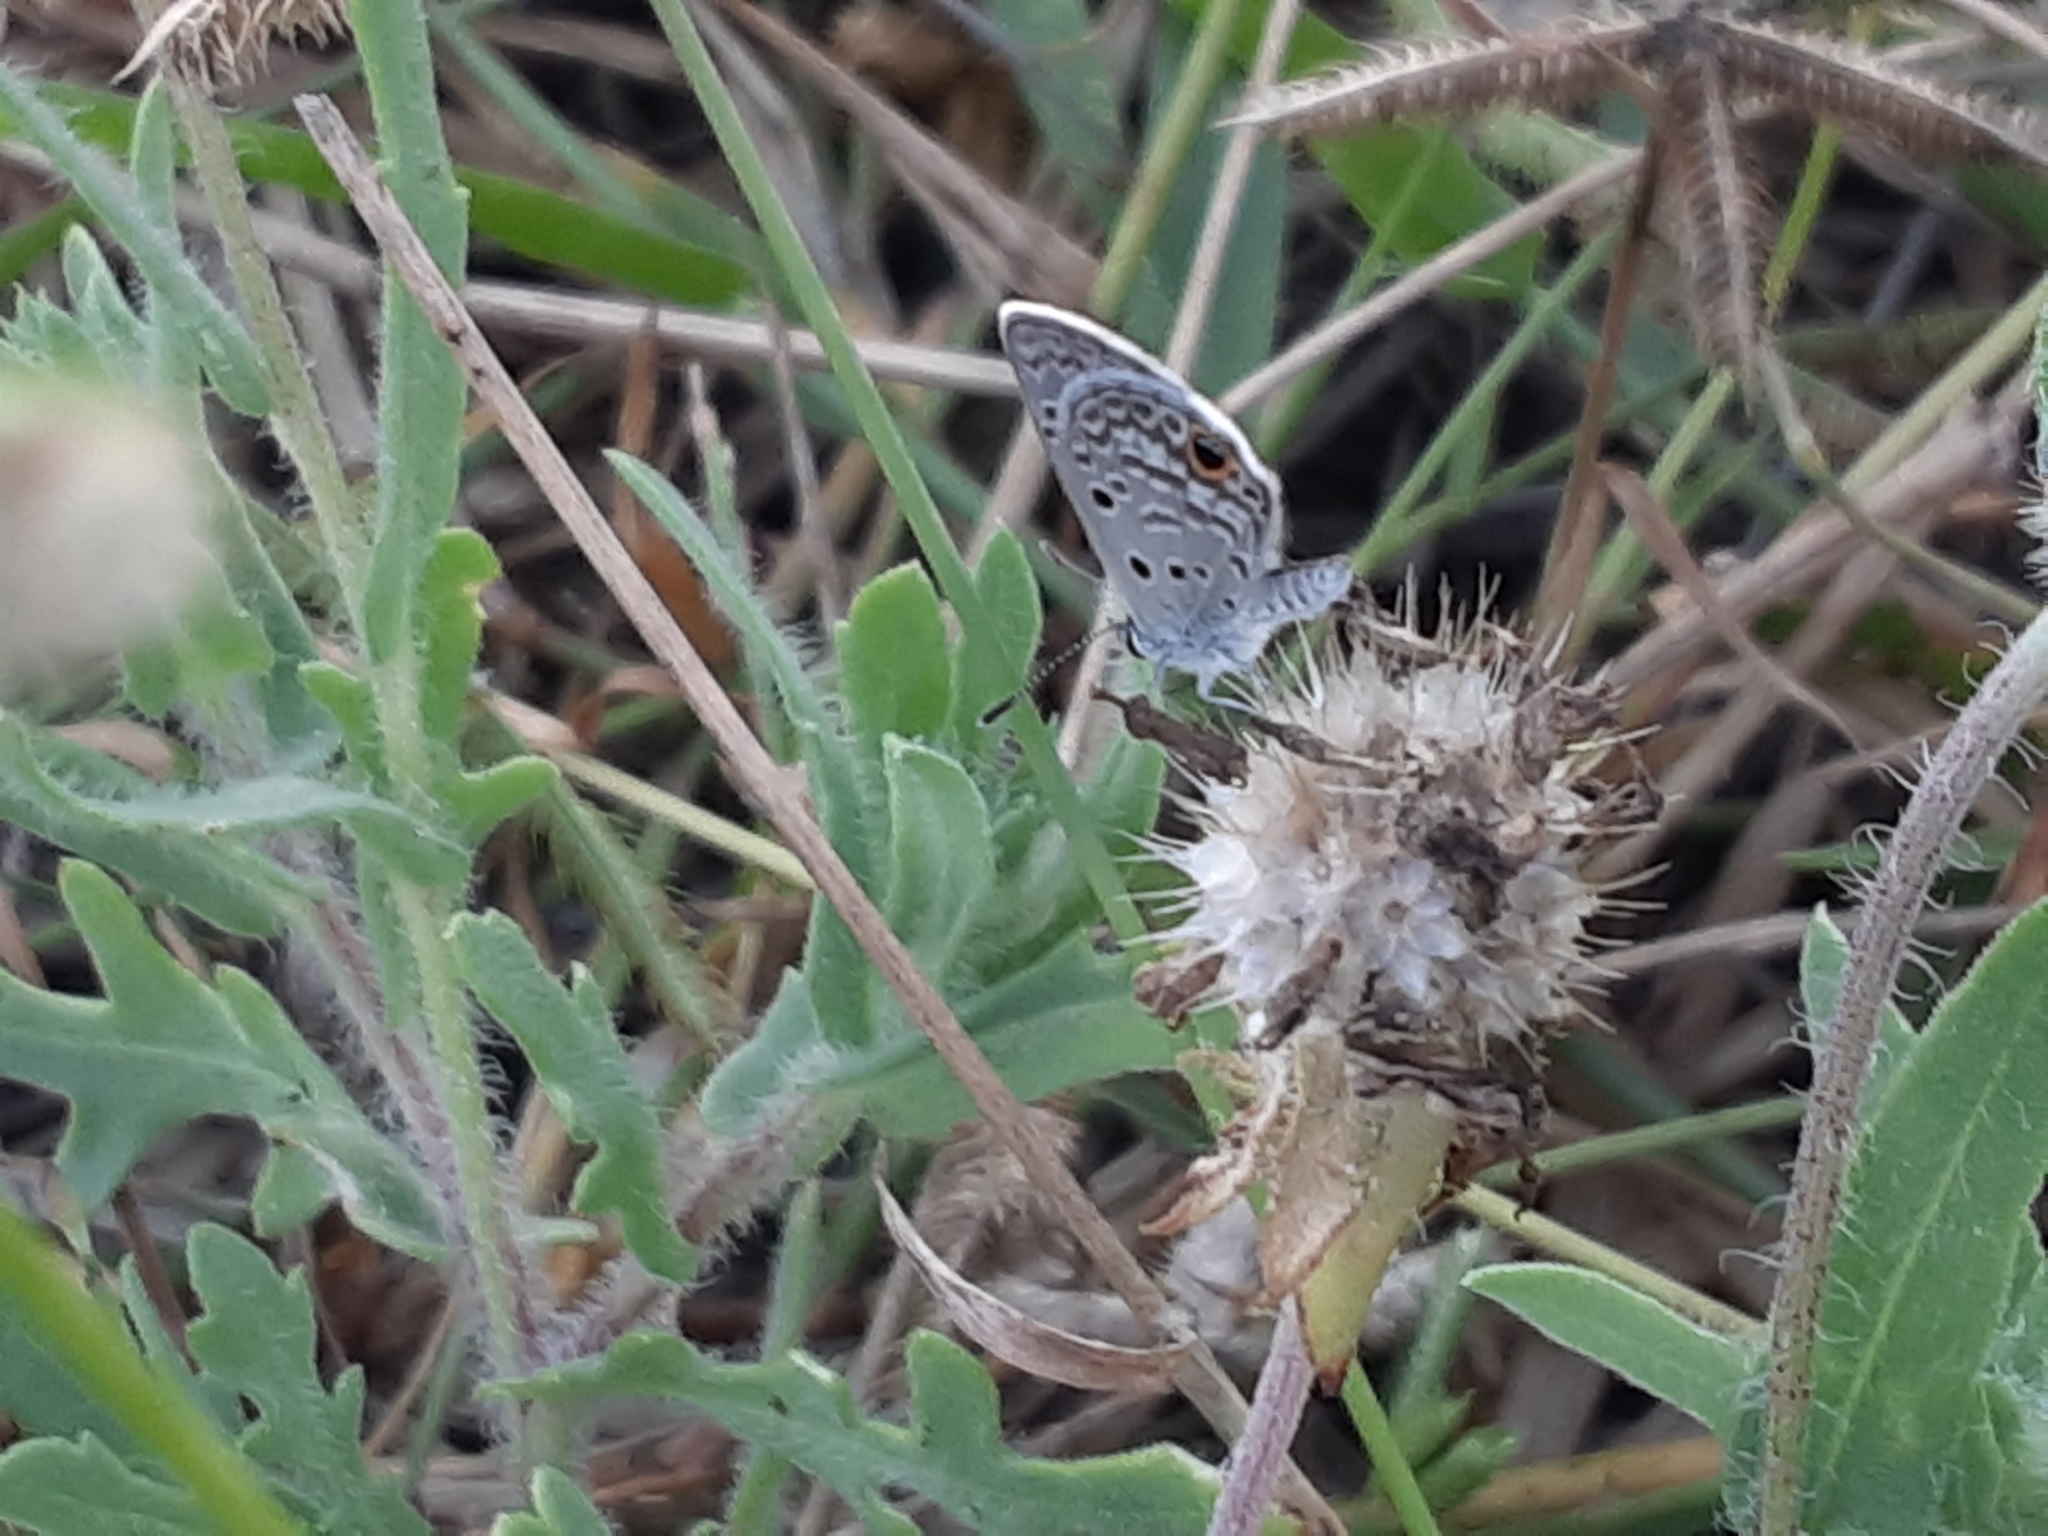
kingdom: Animalia
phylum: Arthropoda
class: Insecta
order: Lepidoptera
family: Lycaenidae
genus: Hemiargus
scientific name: Hemiargus ceraunus
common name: Ceraunus blue
